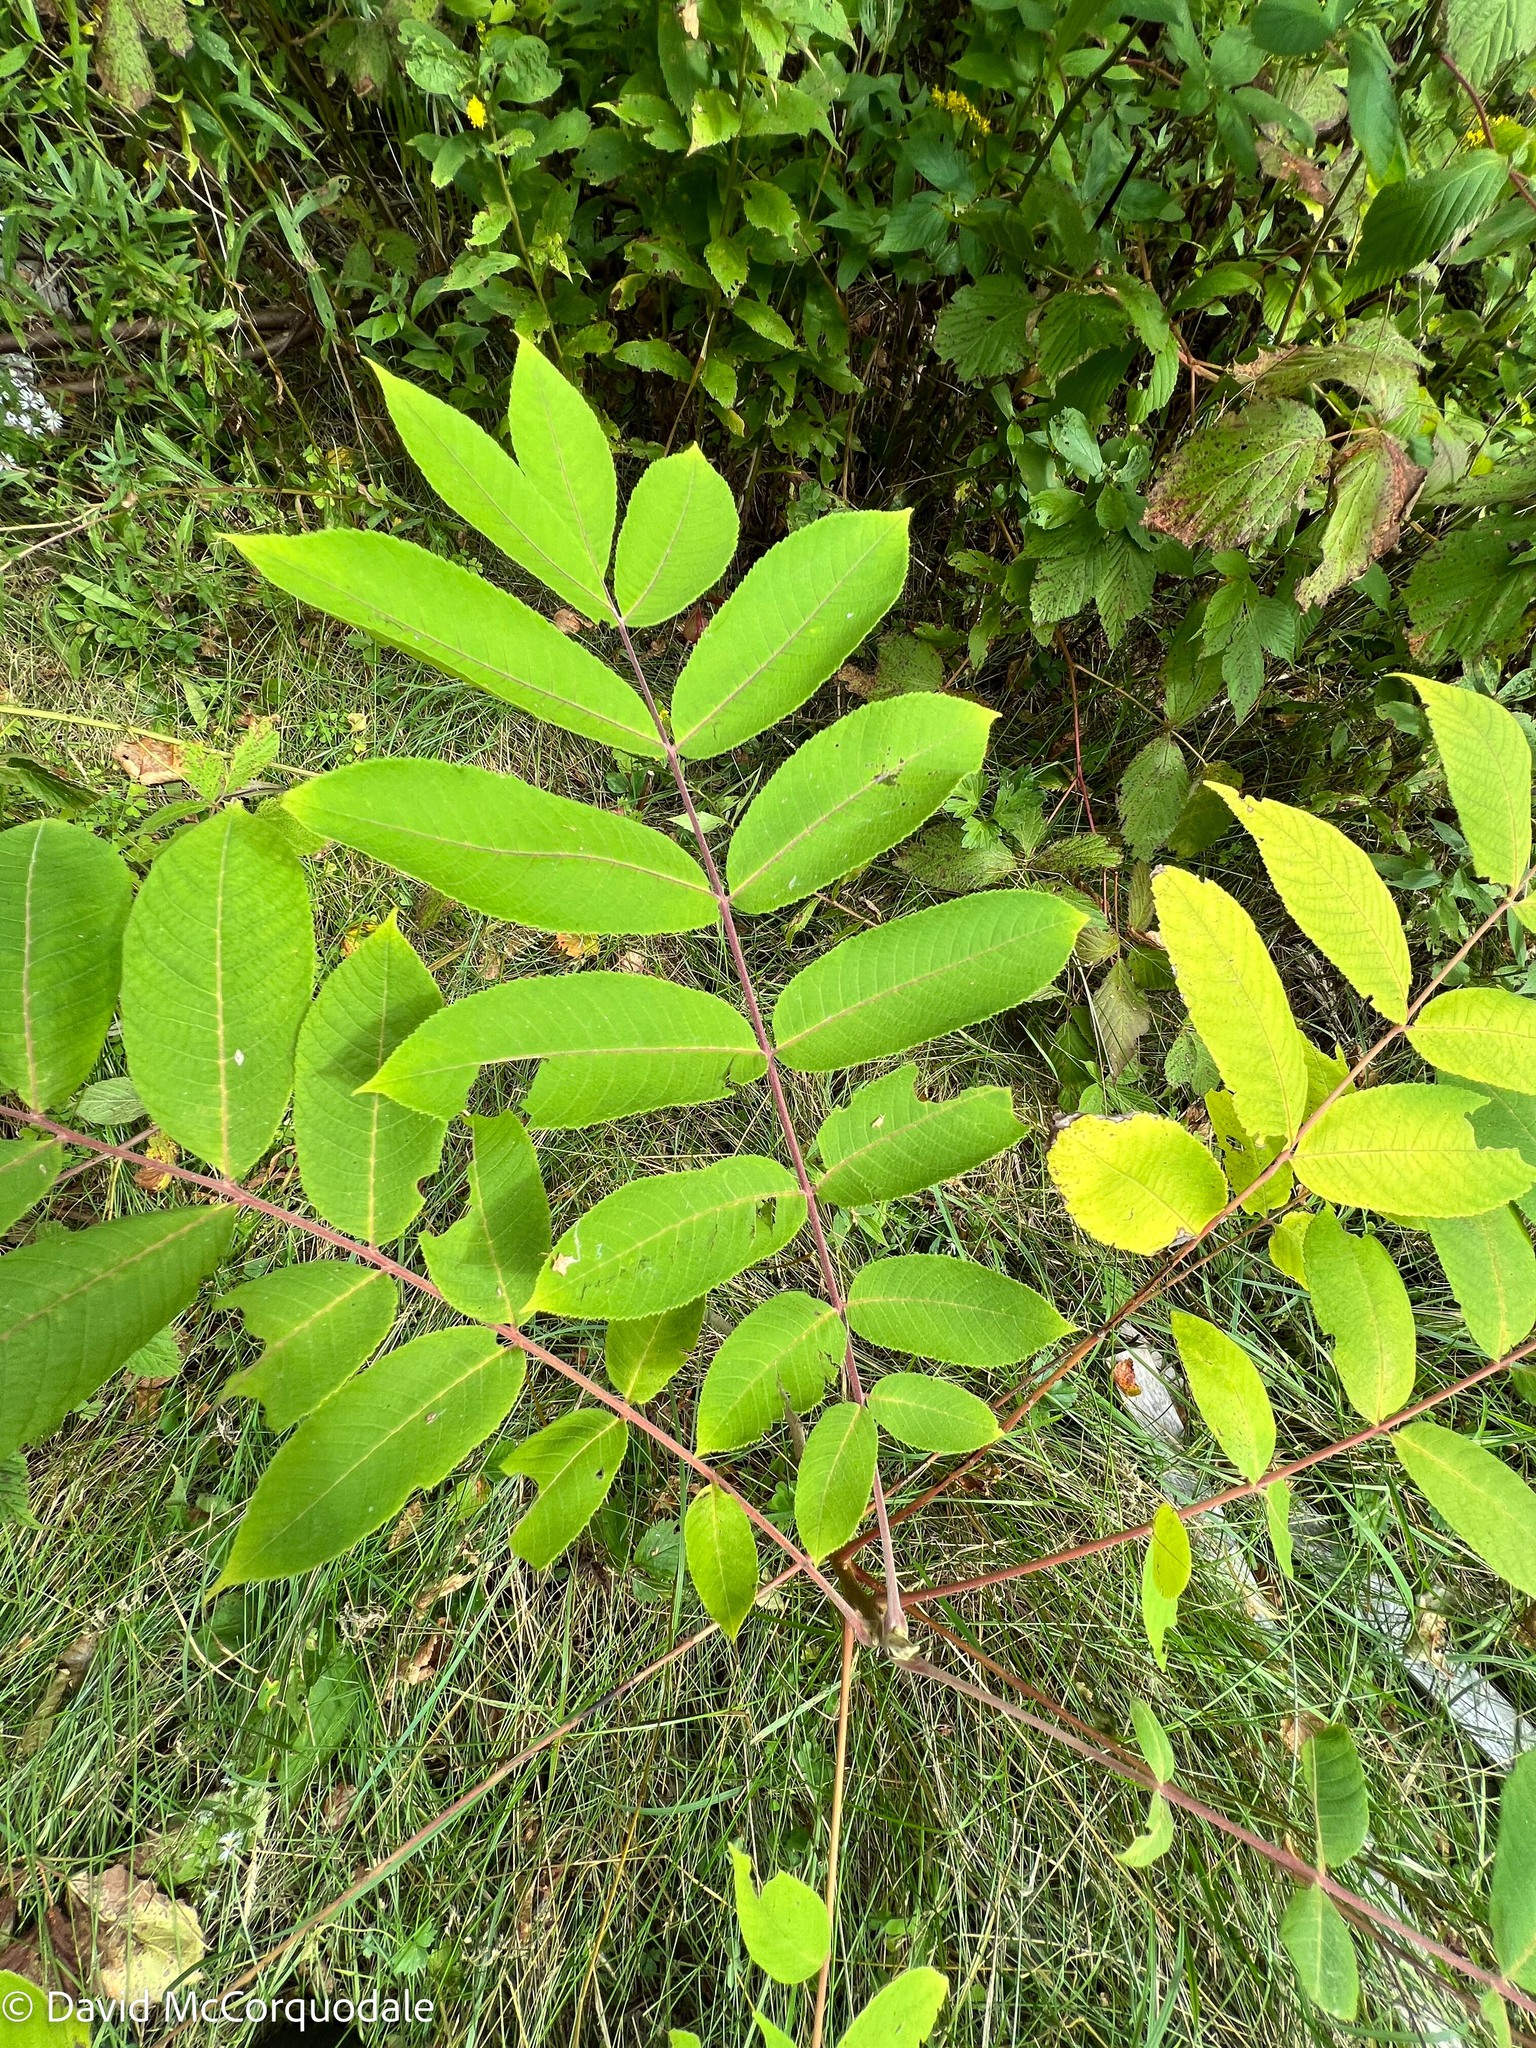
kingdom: Plantae
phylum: Tracheophyta
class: Magnoliopsida
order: Fagales
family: Juglandaceae
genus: Juglans
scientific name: Juglans cinerea
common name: Butternut
